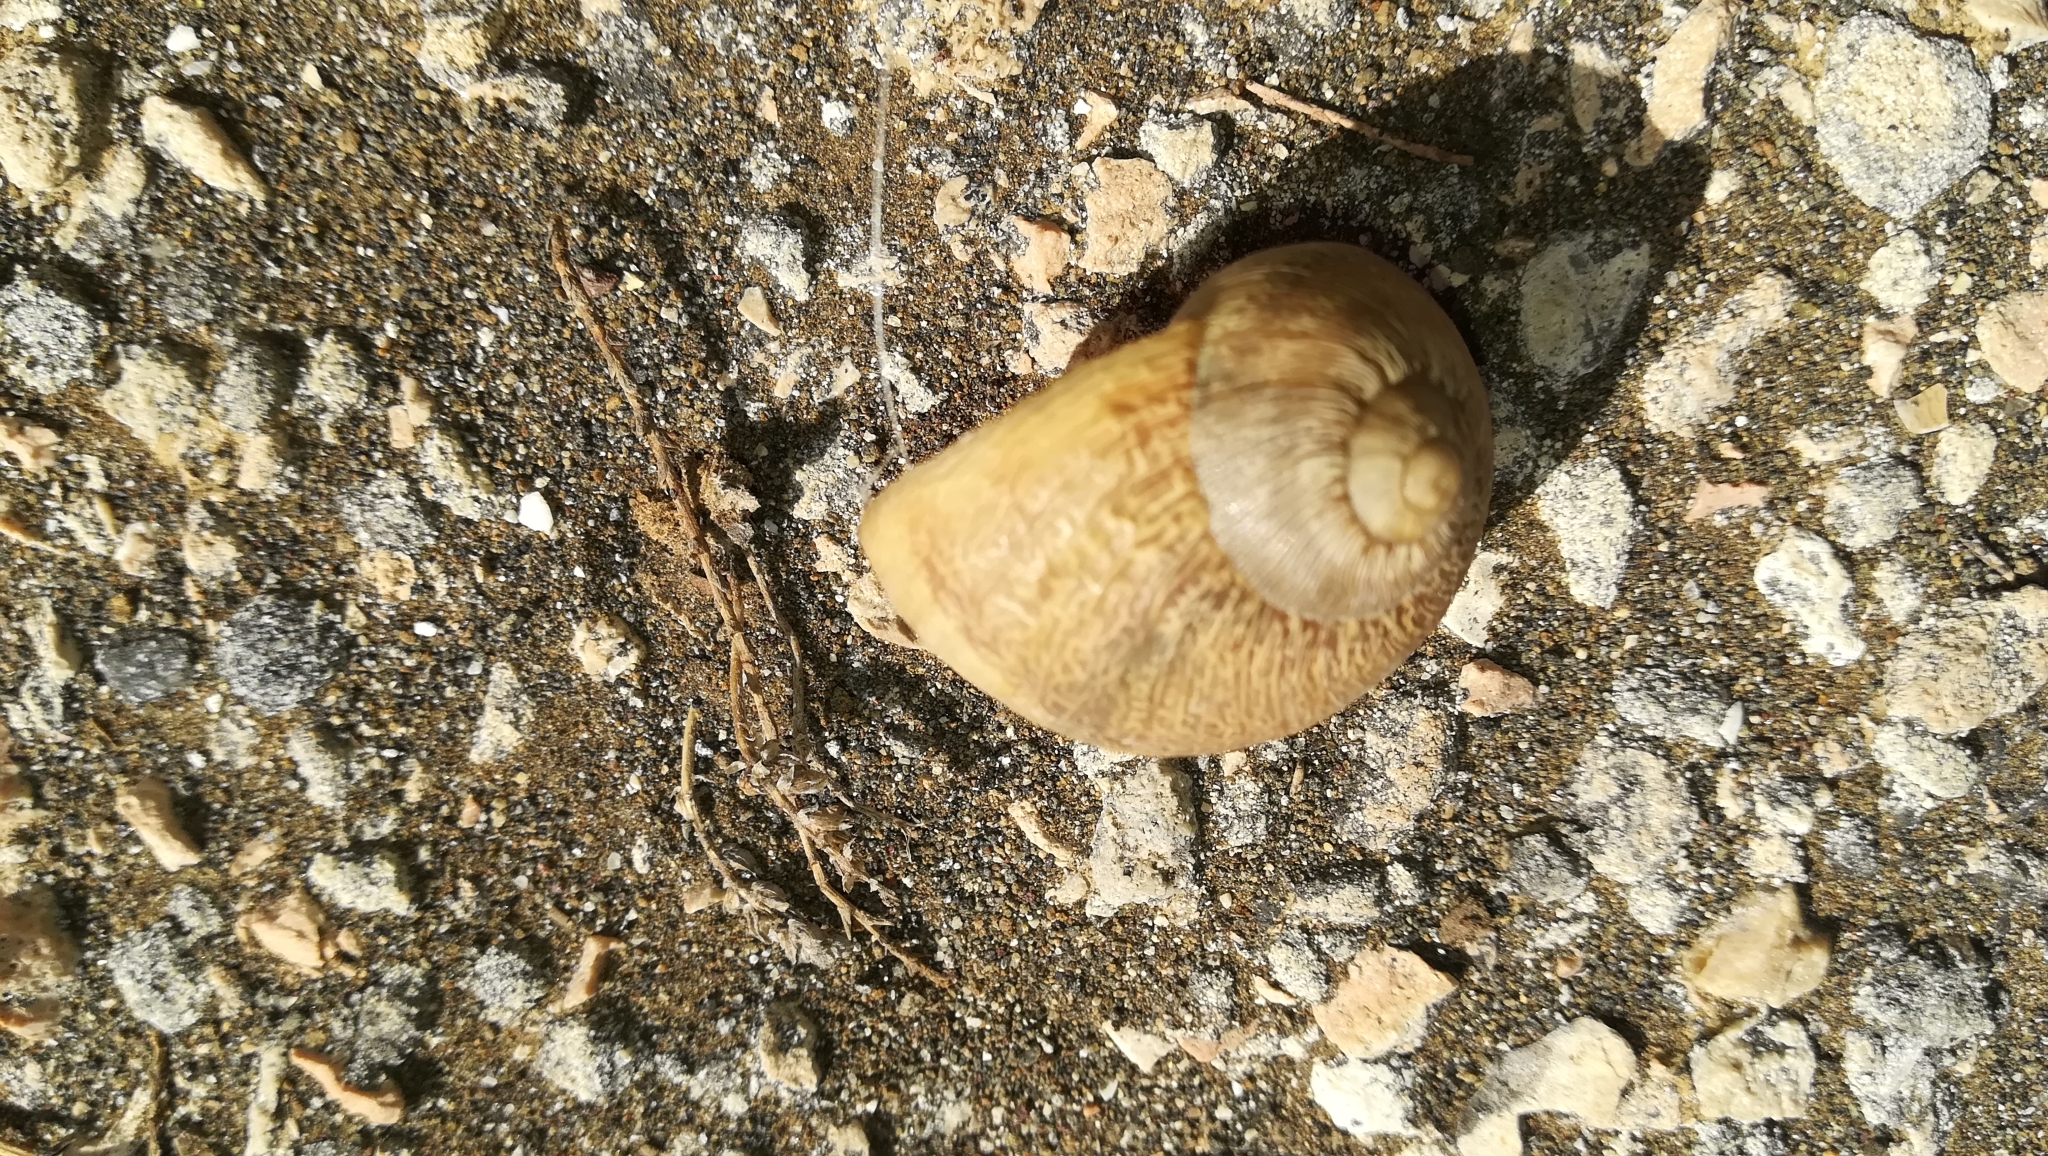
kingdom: Animalia
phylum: Mollusca
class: Gastropoda
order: Stylommatophora
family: Helicidae
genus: Cornu
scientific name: Cornu aspersum
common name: Brown garden snail
